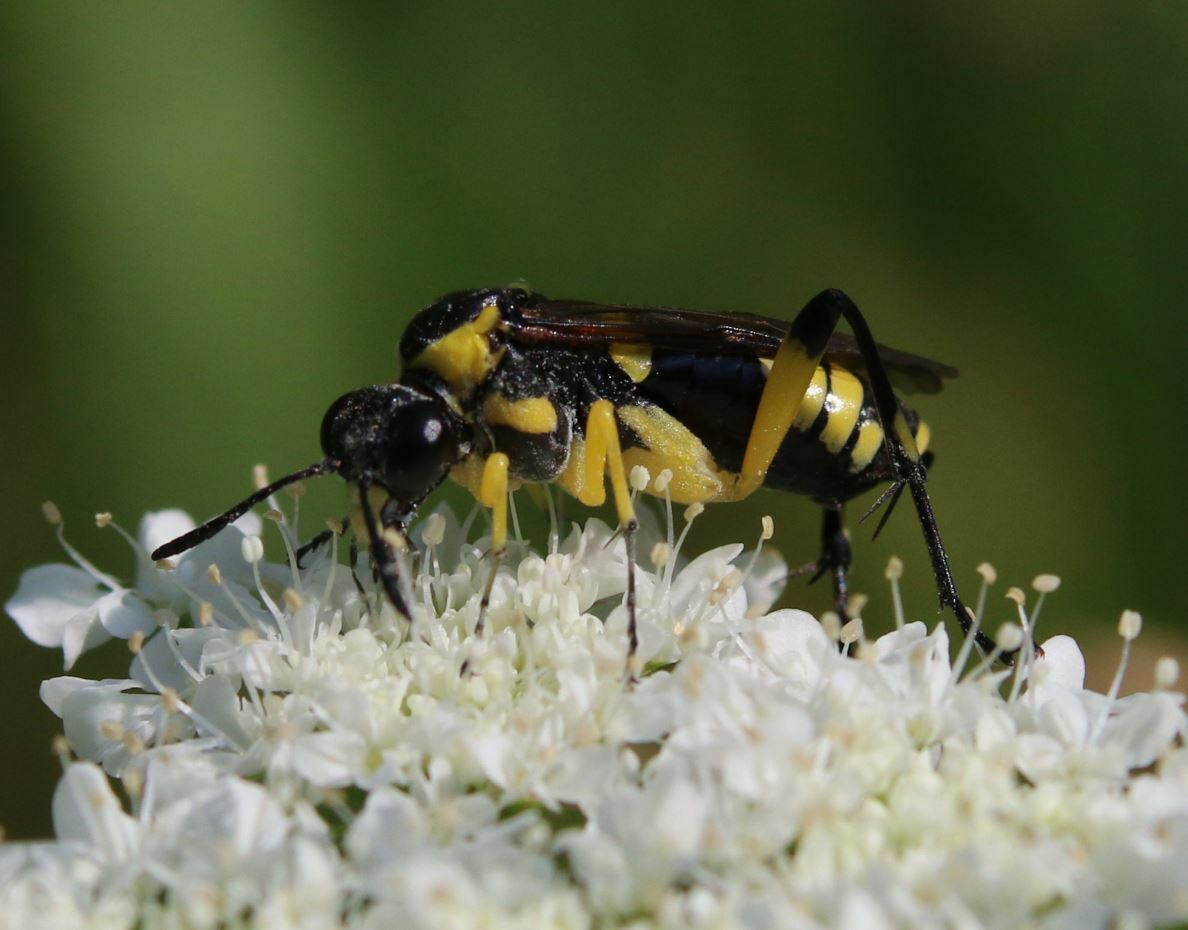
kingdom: Animalia
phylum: Arthropoda
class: Insecta
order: Hymenoptera
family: Tenthredinidae
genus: Macrophya
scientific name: Macrophya montana
